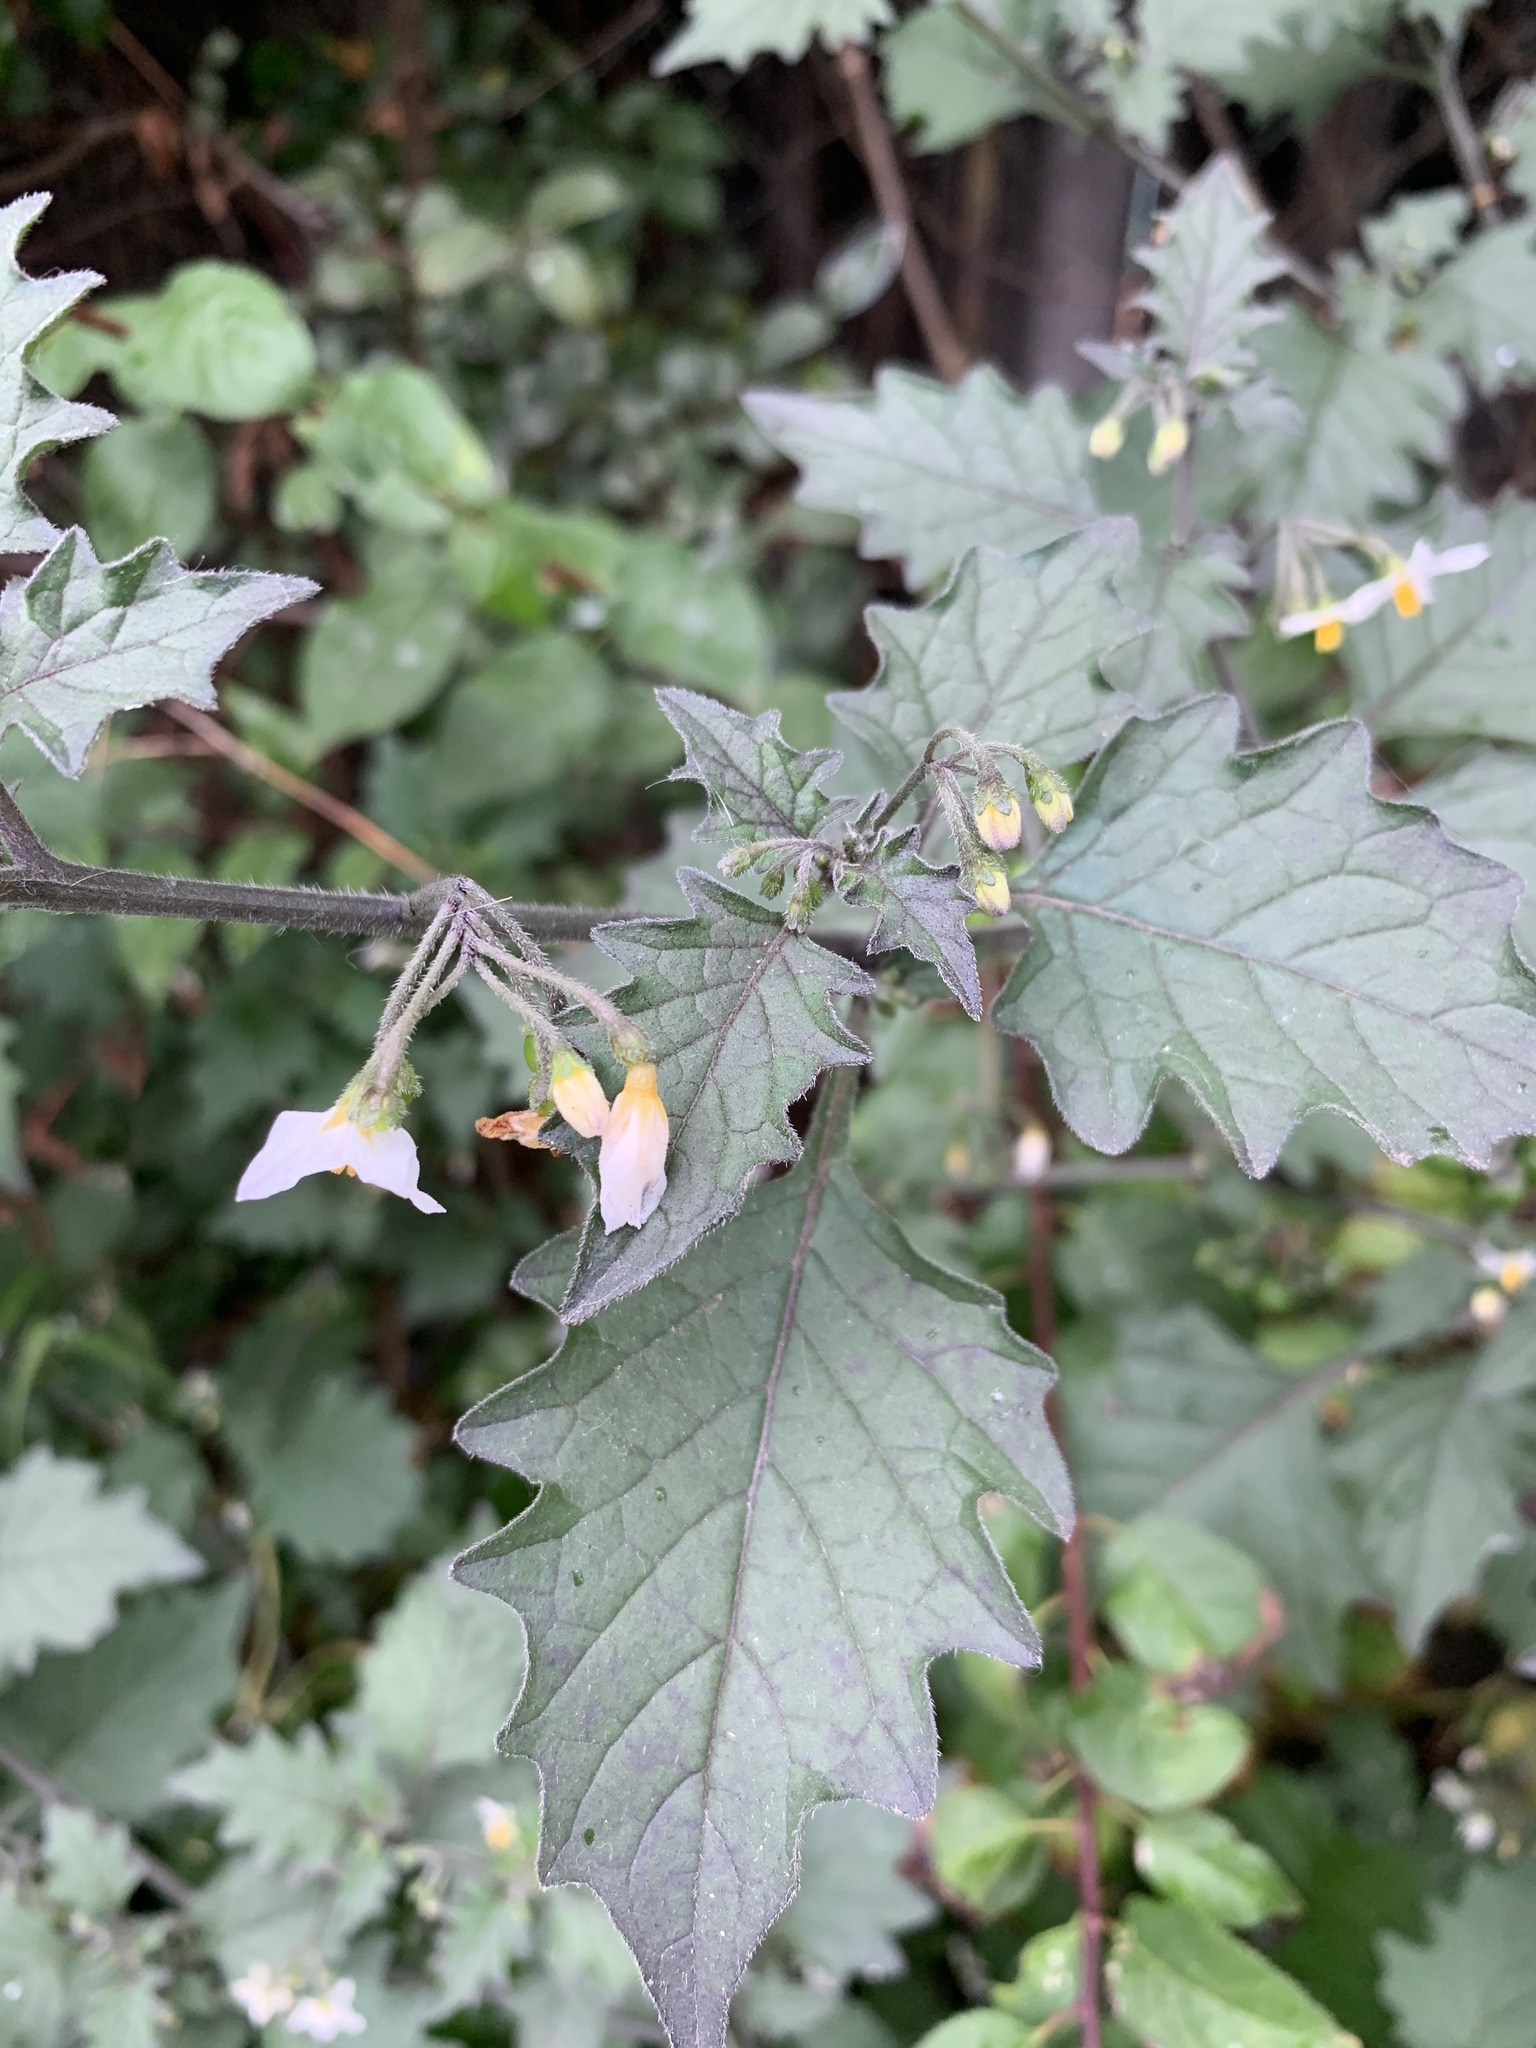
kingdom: Plantae
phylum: Tracheophyta
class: Magnoliopsida
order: Solanales
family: Solanaceae
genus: Solanum
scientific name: Solanum nigrum
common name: Black nightshade
